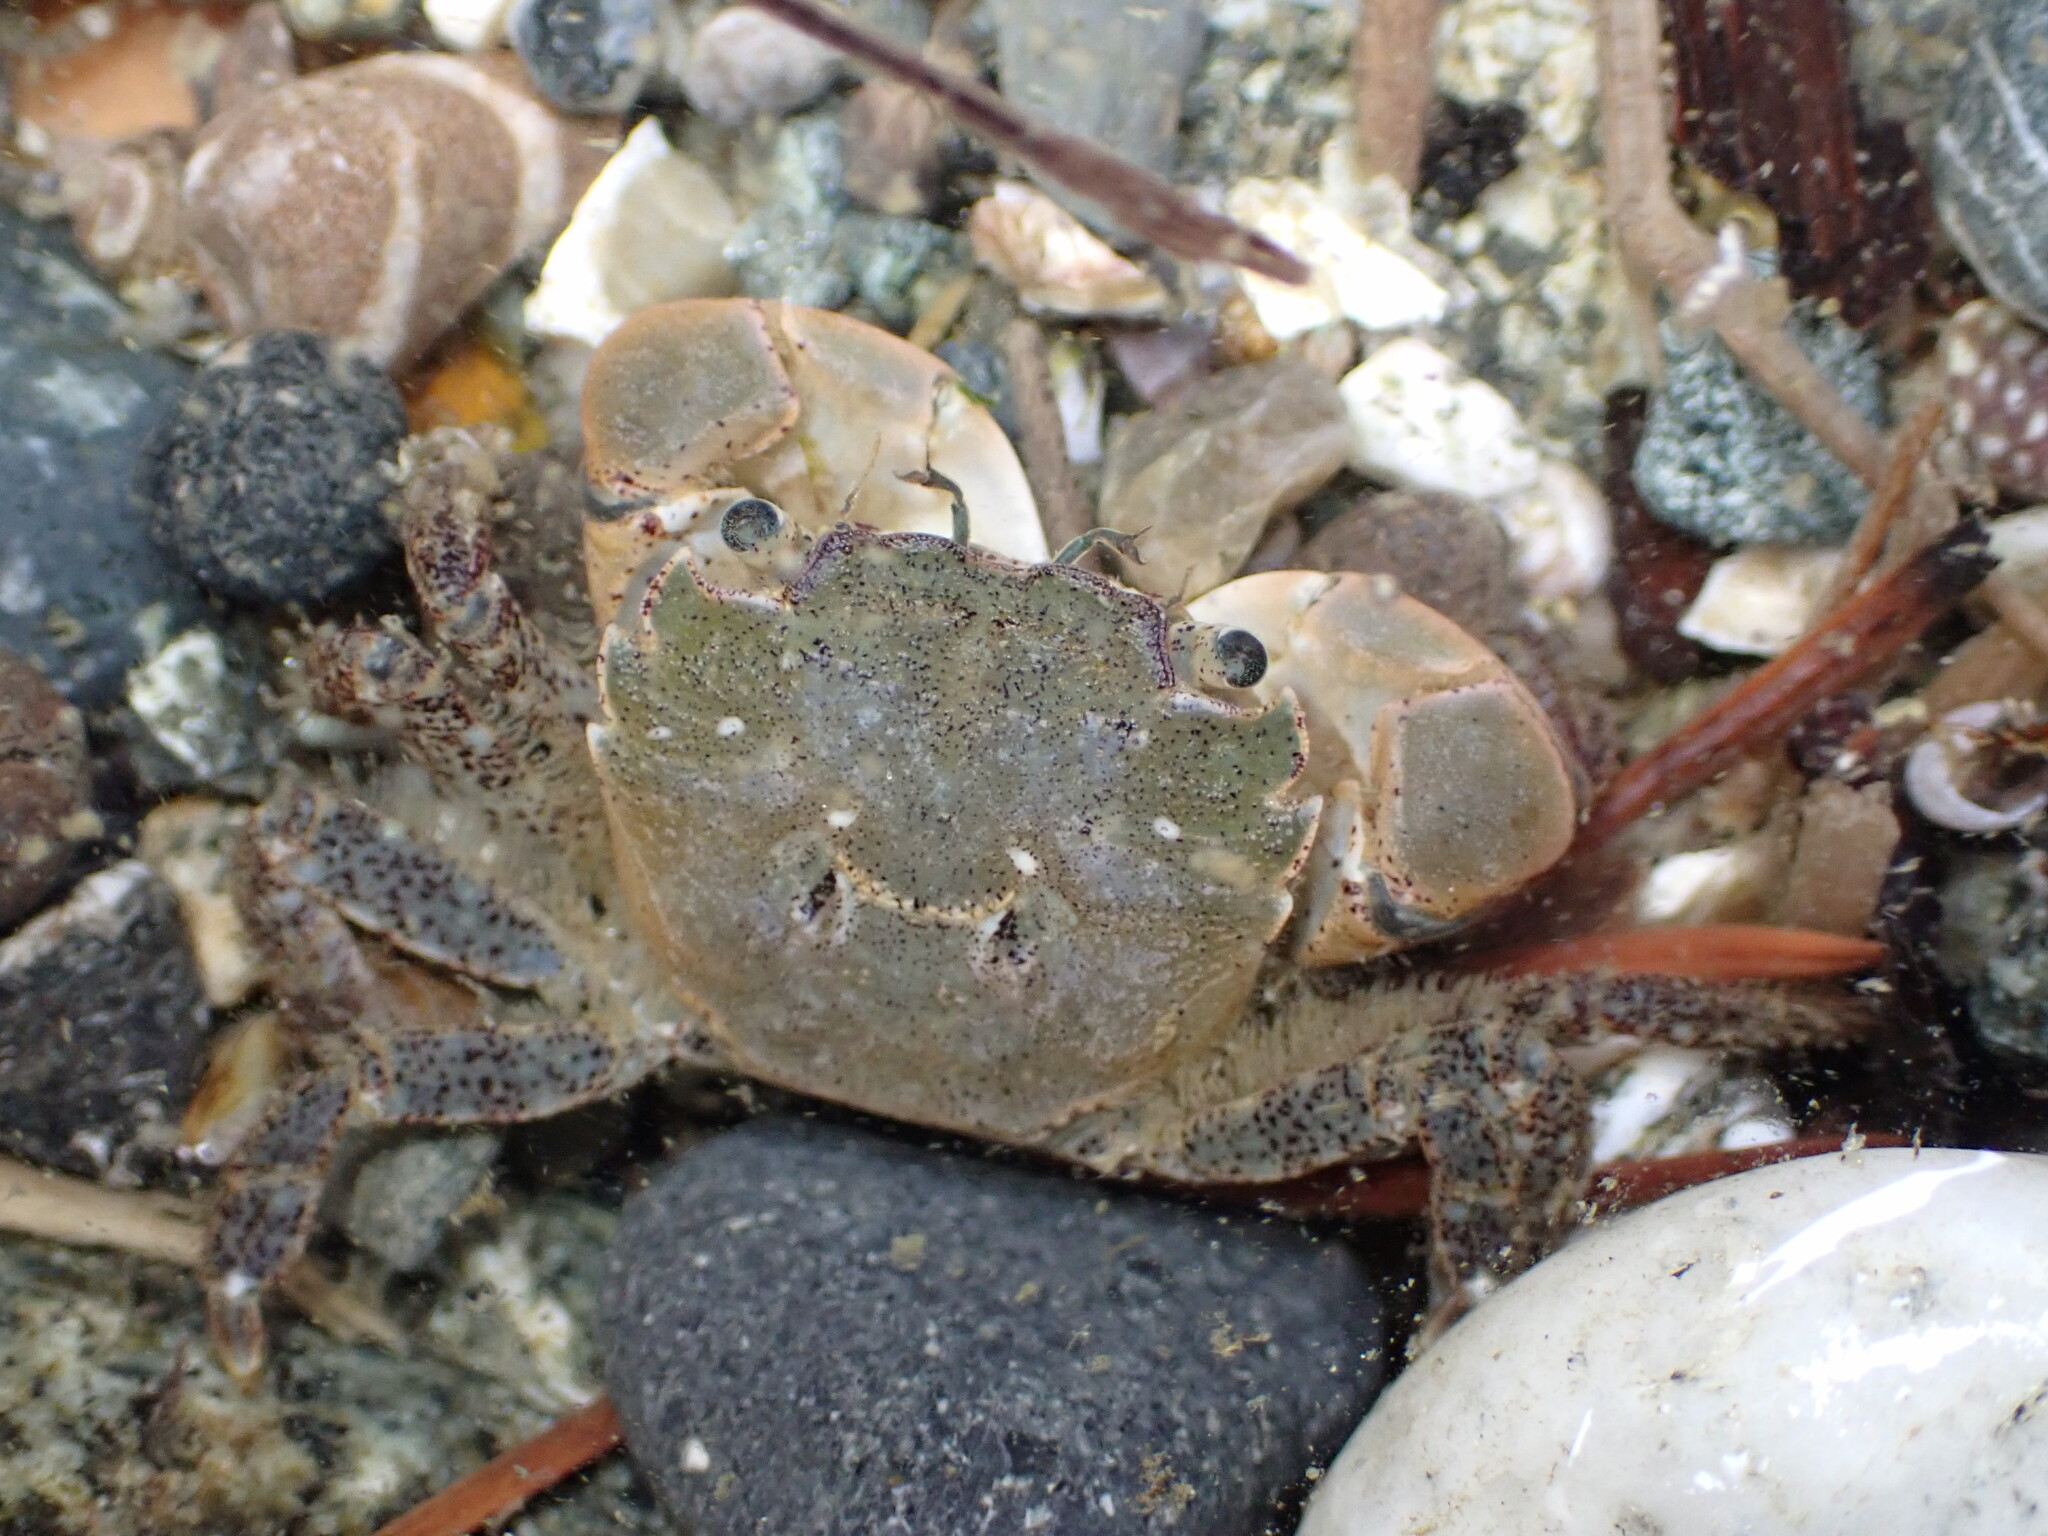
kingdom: Animalia
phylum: Arthropoda
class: Malacostraca
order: Decapoda
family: Varunidae
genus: Hemigrapsus
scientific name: Hemigrapsus oregonensis
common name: Yellow shore crab
